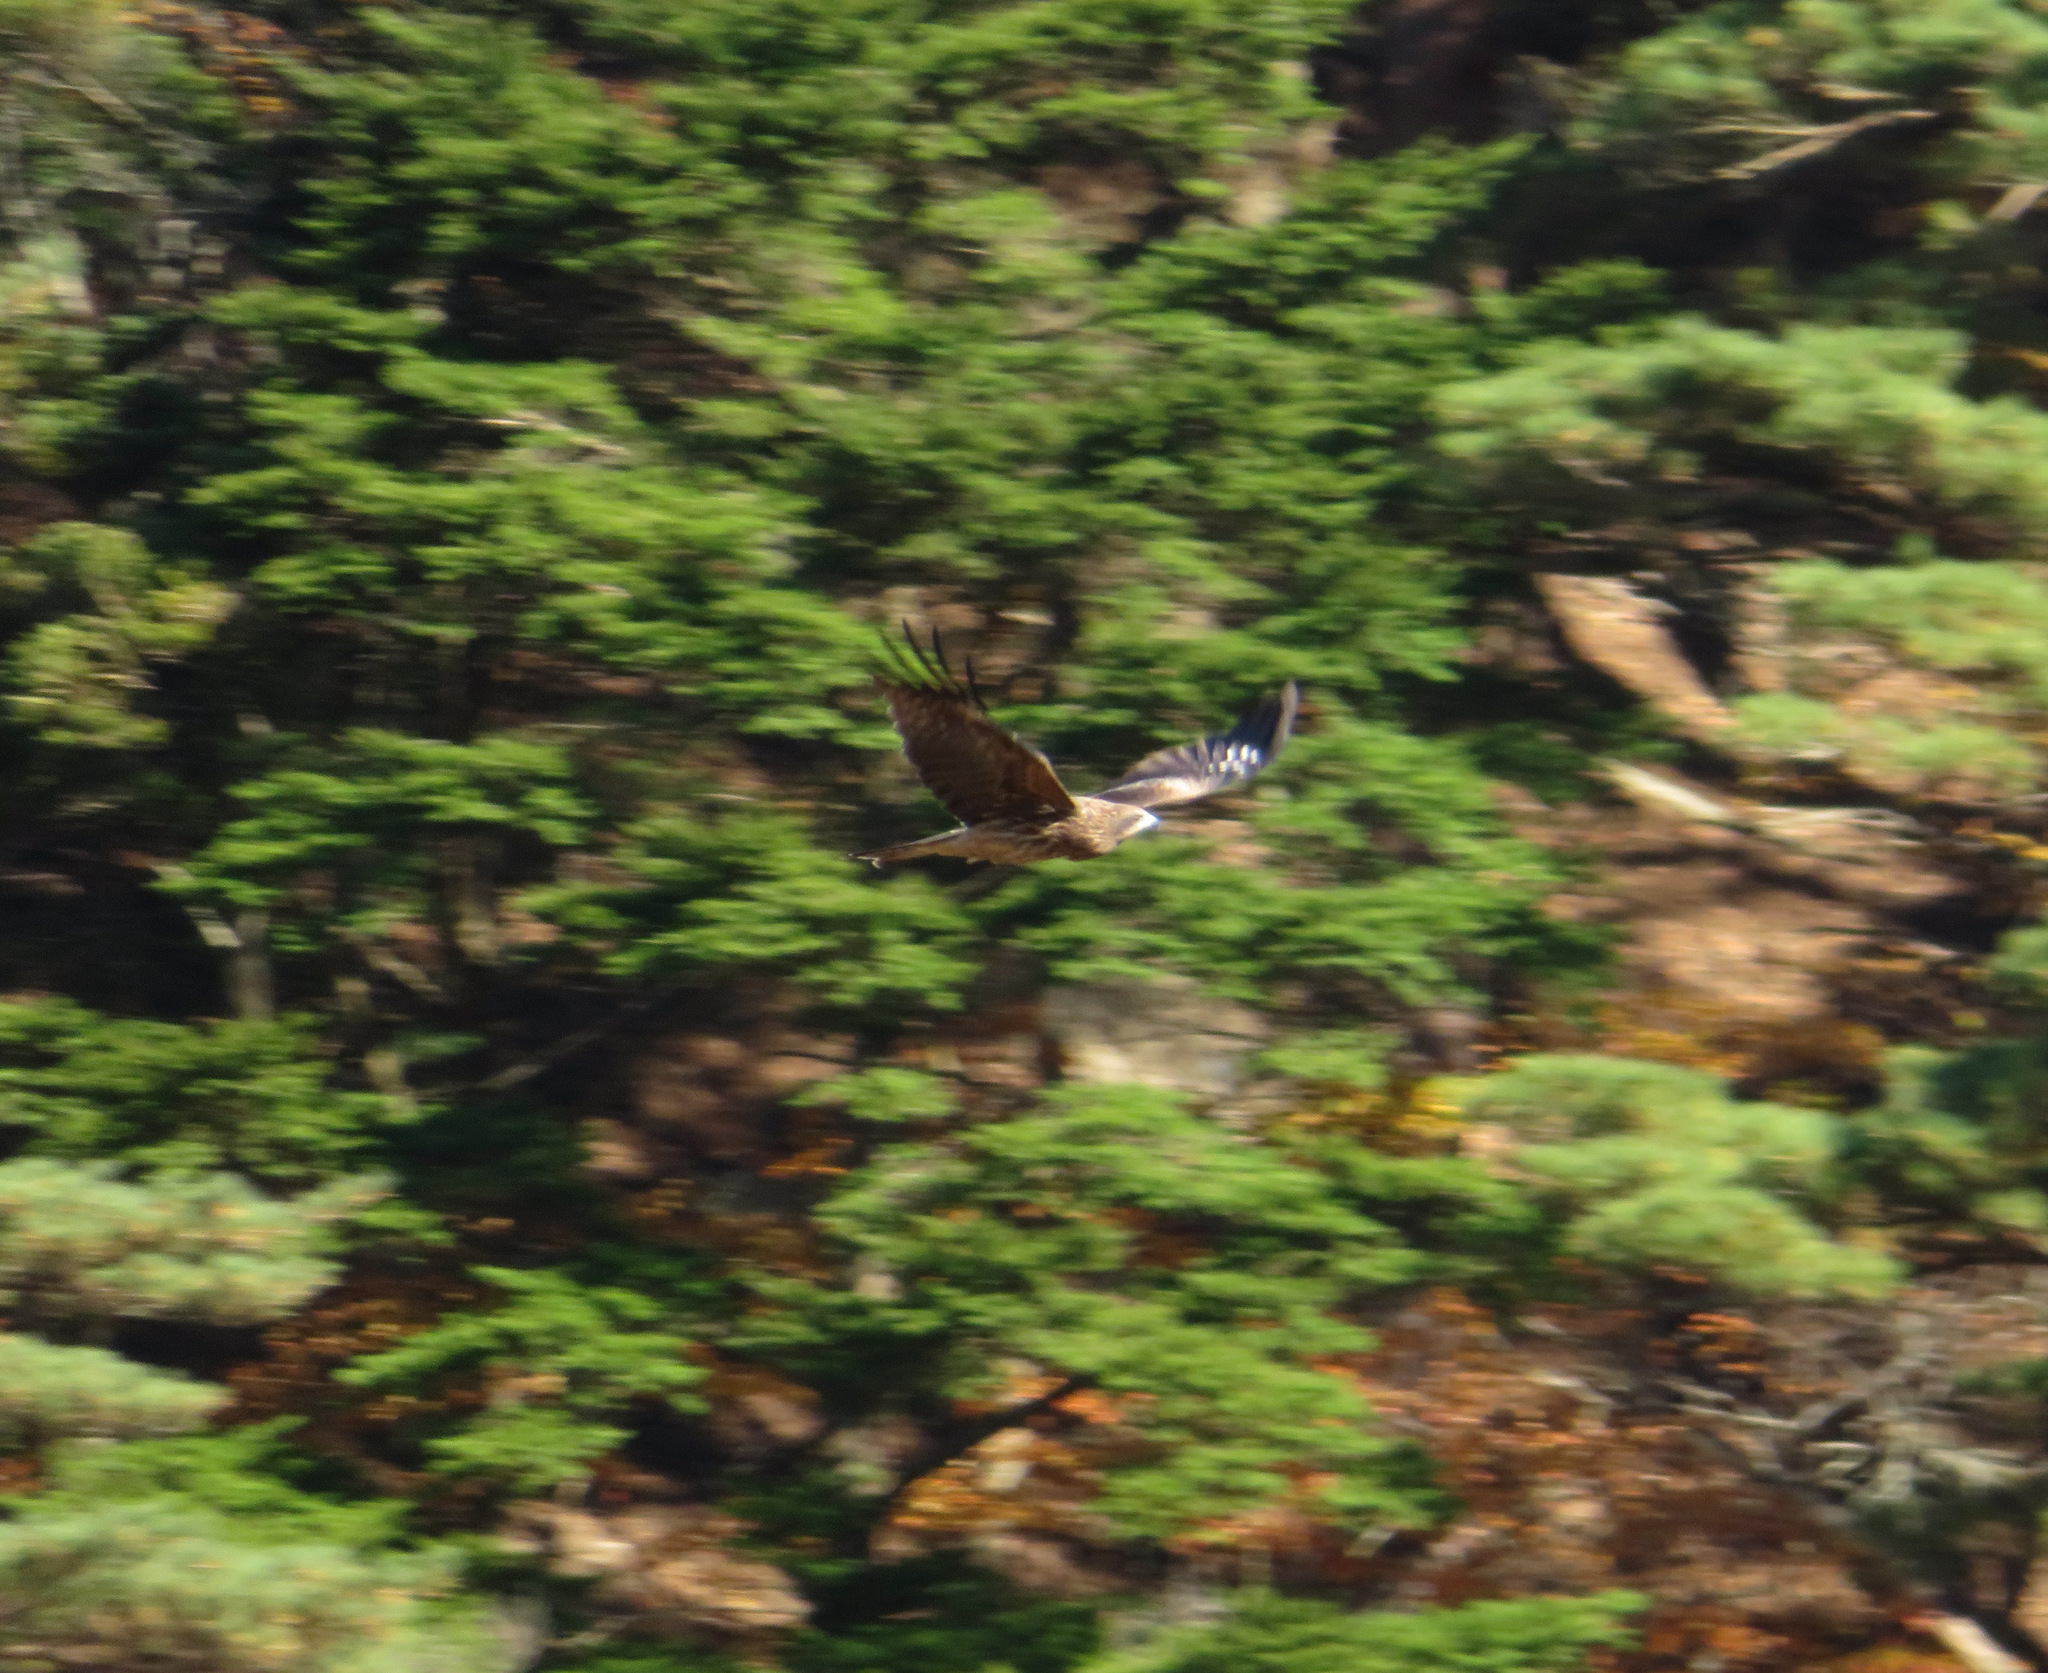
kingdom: Animalia
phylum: Chordata
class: Aves
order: Accipitriformes
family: Accipitridae
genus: Milvus
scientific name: Milvus migrans
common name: Black kite
